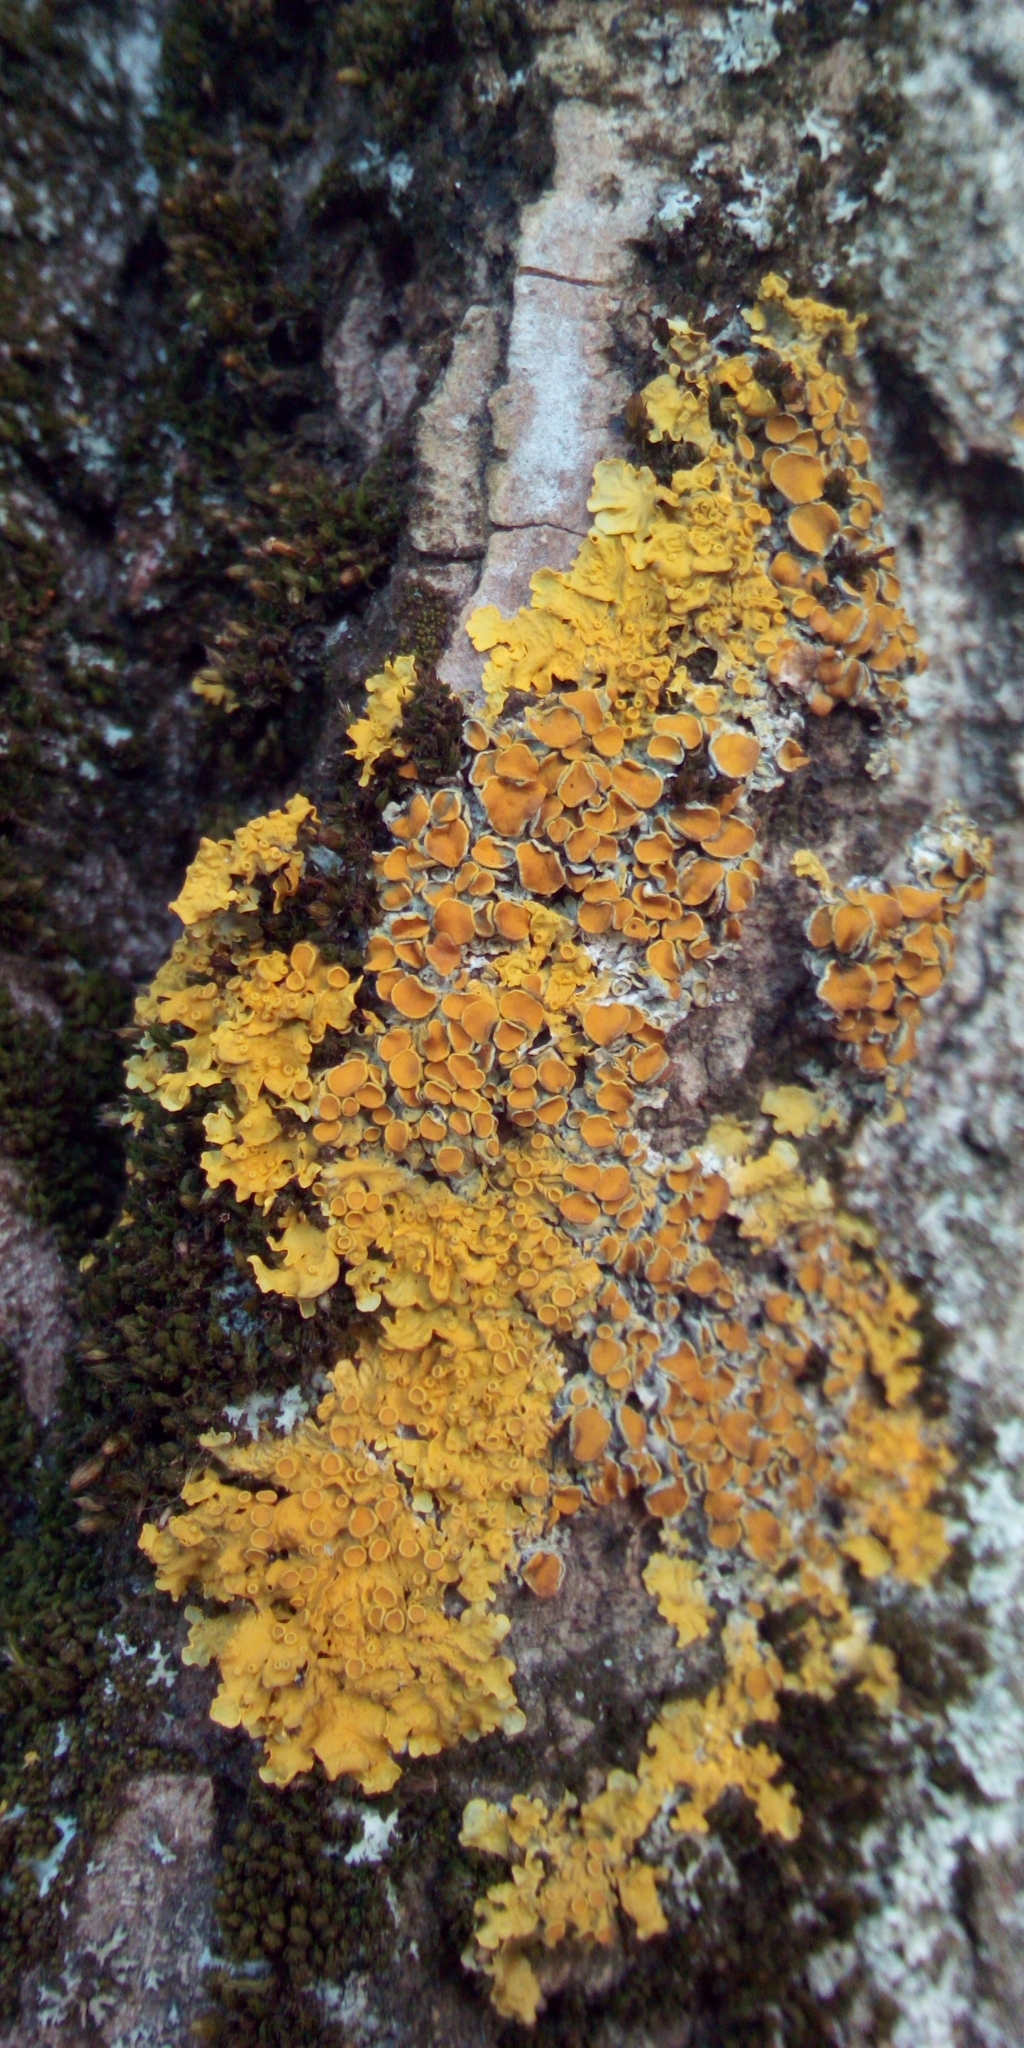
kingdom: Fungi
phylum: Ascomycota
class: Lecanoromycetes
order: Teloschistales
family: Teloschistaceae
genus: Xanthoria
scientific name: Xanthoria parietina
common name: Common orange lichen
